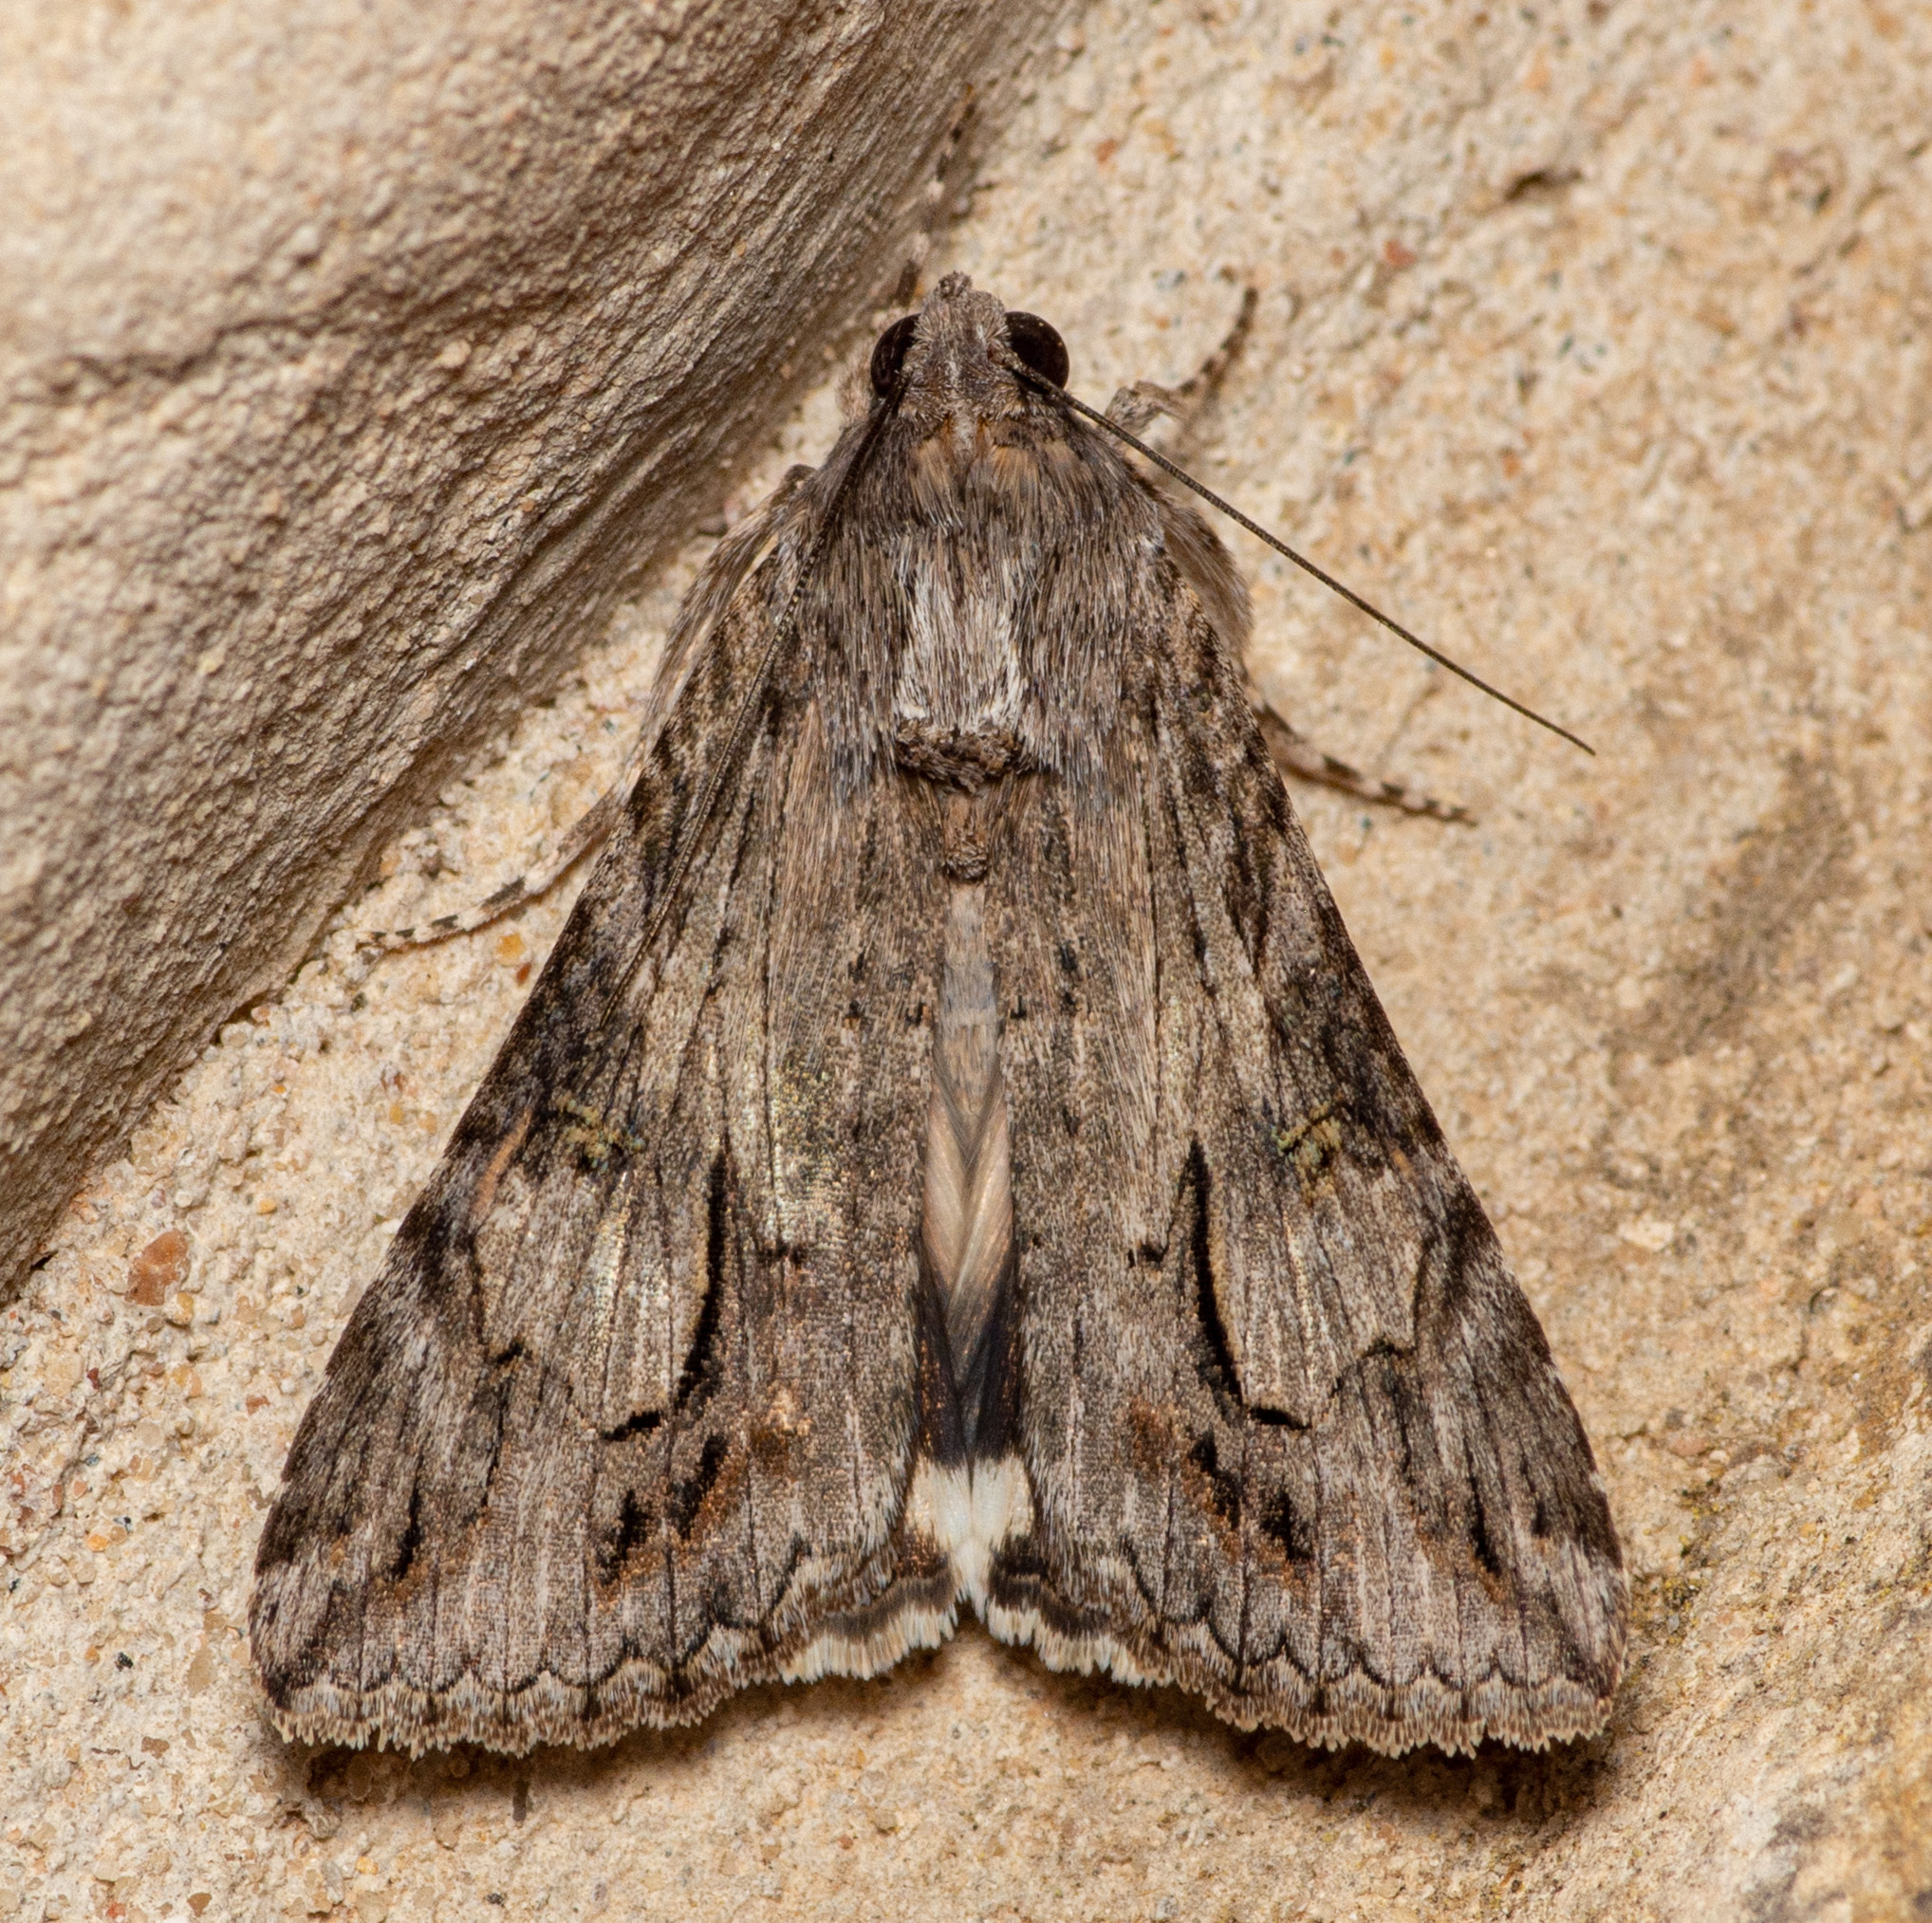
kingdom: Animalia
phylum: Arthropoda
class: Insecta
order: Lepidoptera
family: Erebidae
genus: Melipotis
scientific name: Melipotis jucunda
